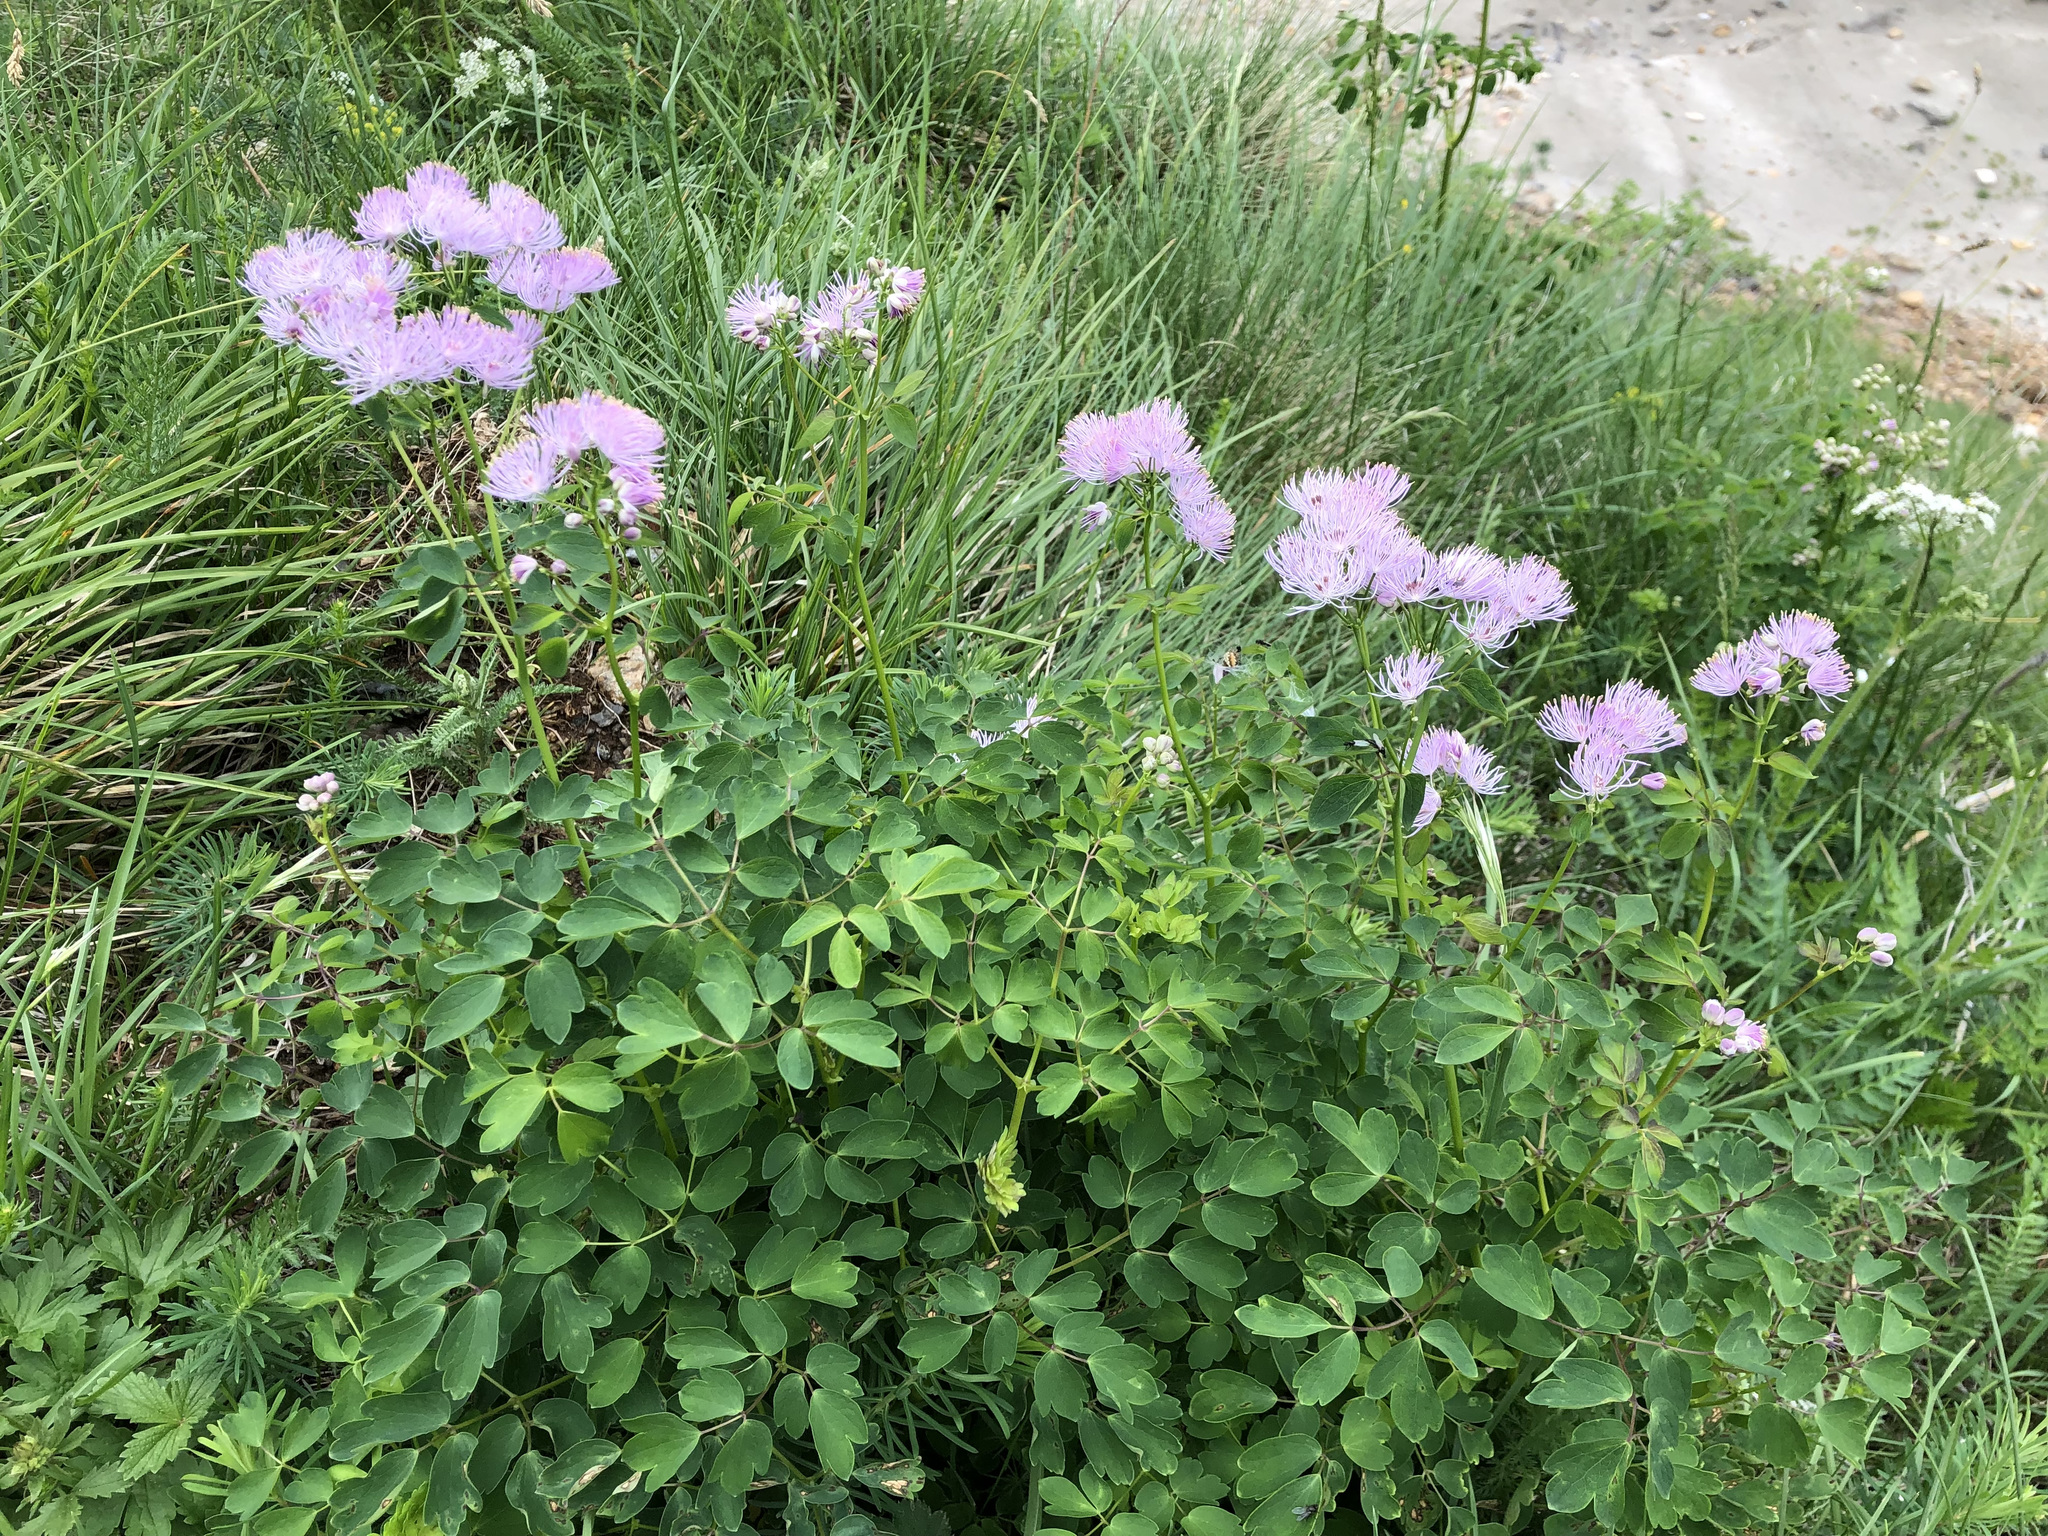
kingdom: Plantae
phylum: Tracheophyta
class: Magnoliopsida
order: Ranunculales
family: Ranunculaceae
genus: Thalictrum
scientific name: Thalictrum aquilegiifolium
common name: French meadow-rue
